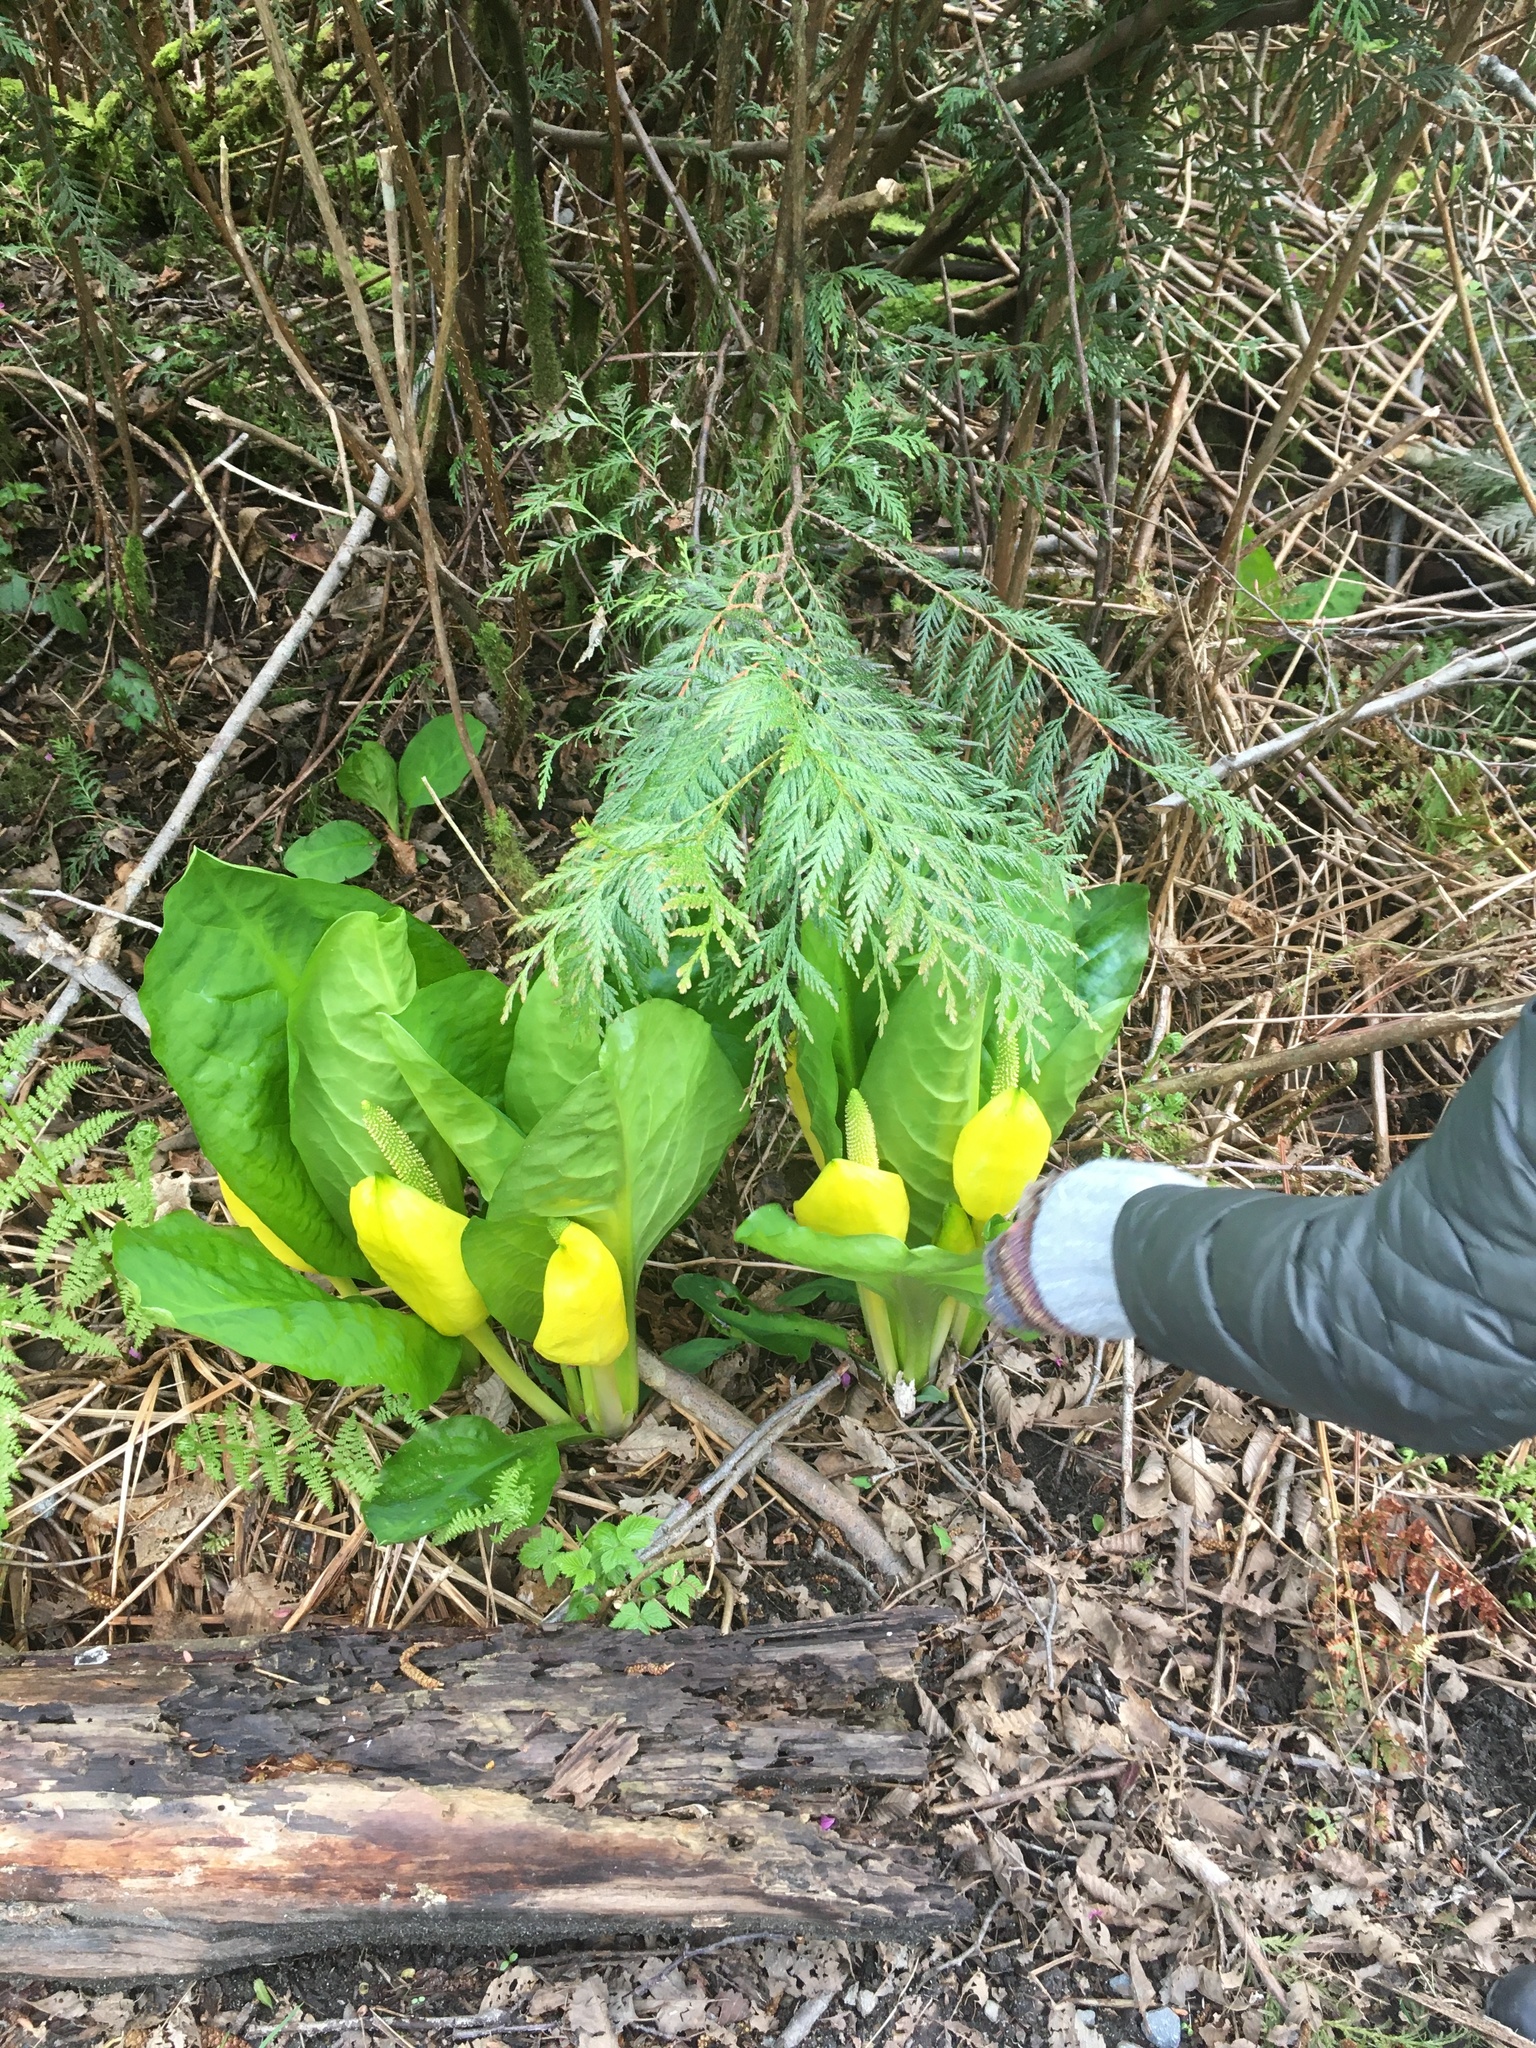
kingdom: Plantae
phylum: Tracheophyta
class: Liliopsida
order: Alismatales
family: Araceae
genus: Lysichiton
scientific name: Lysichiton americanus
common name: American skunk cabbage
